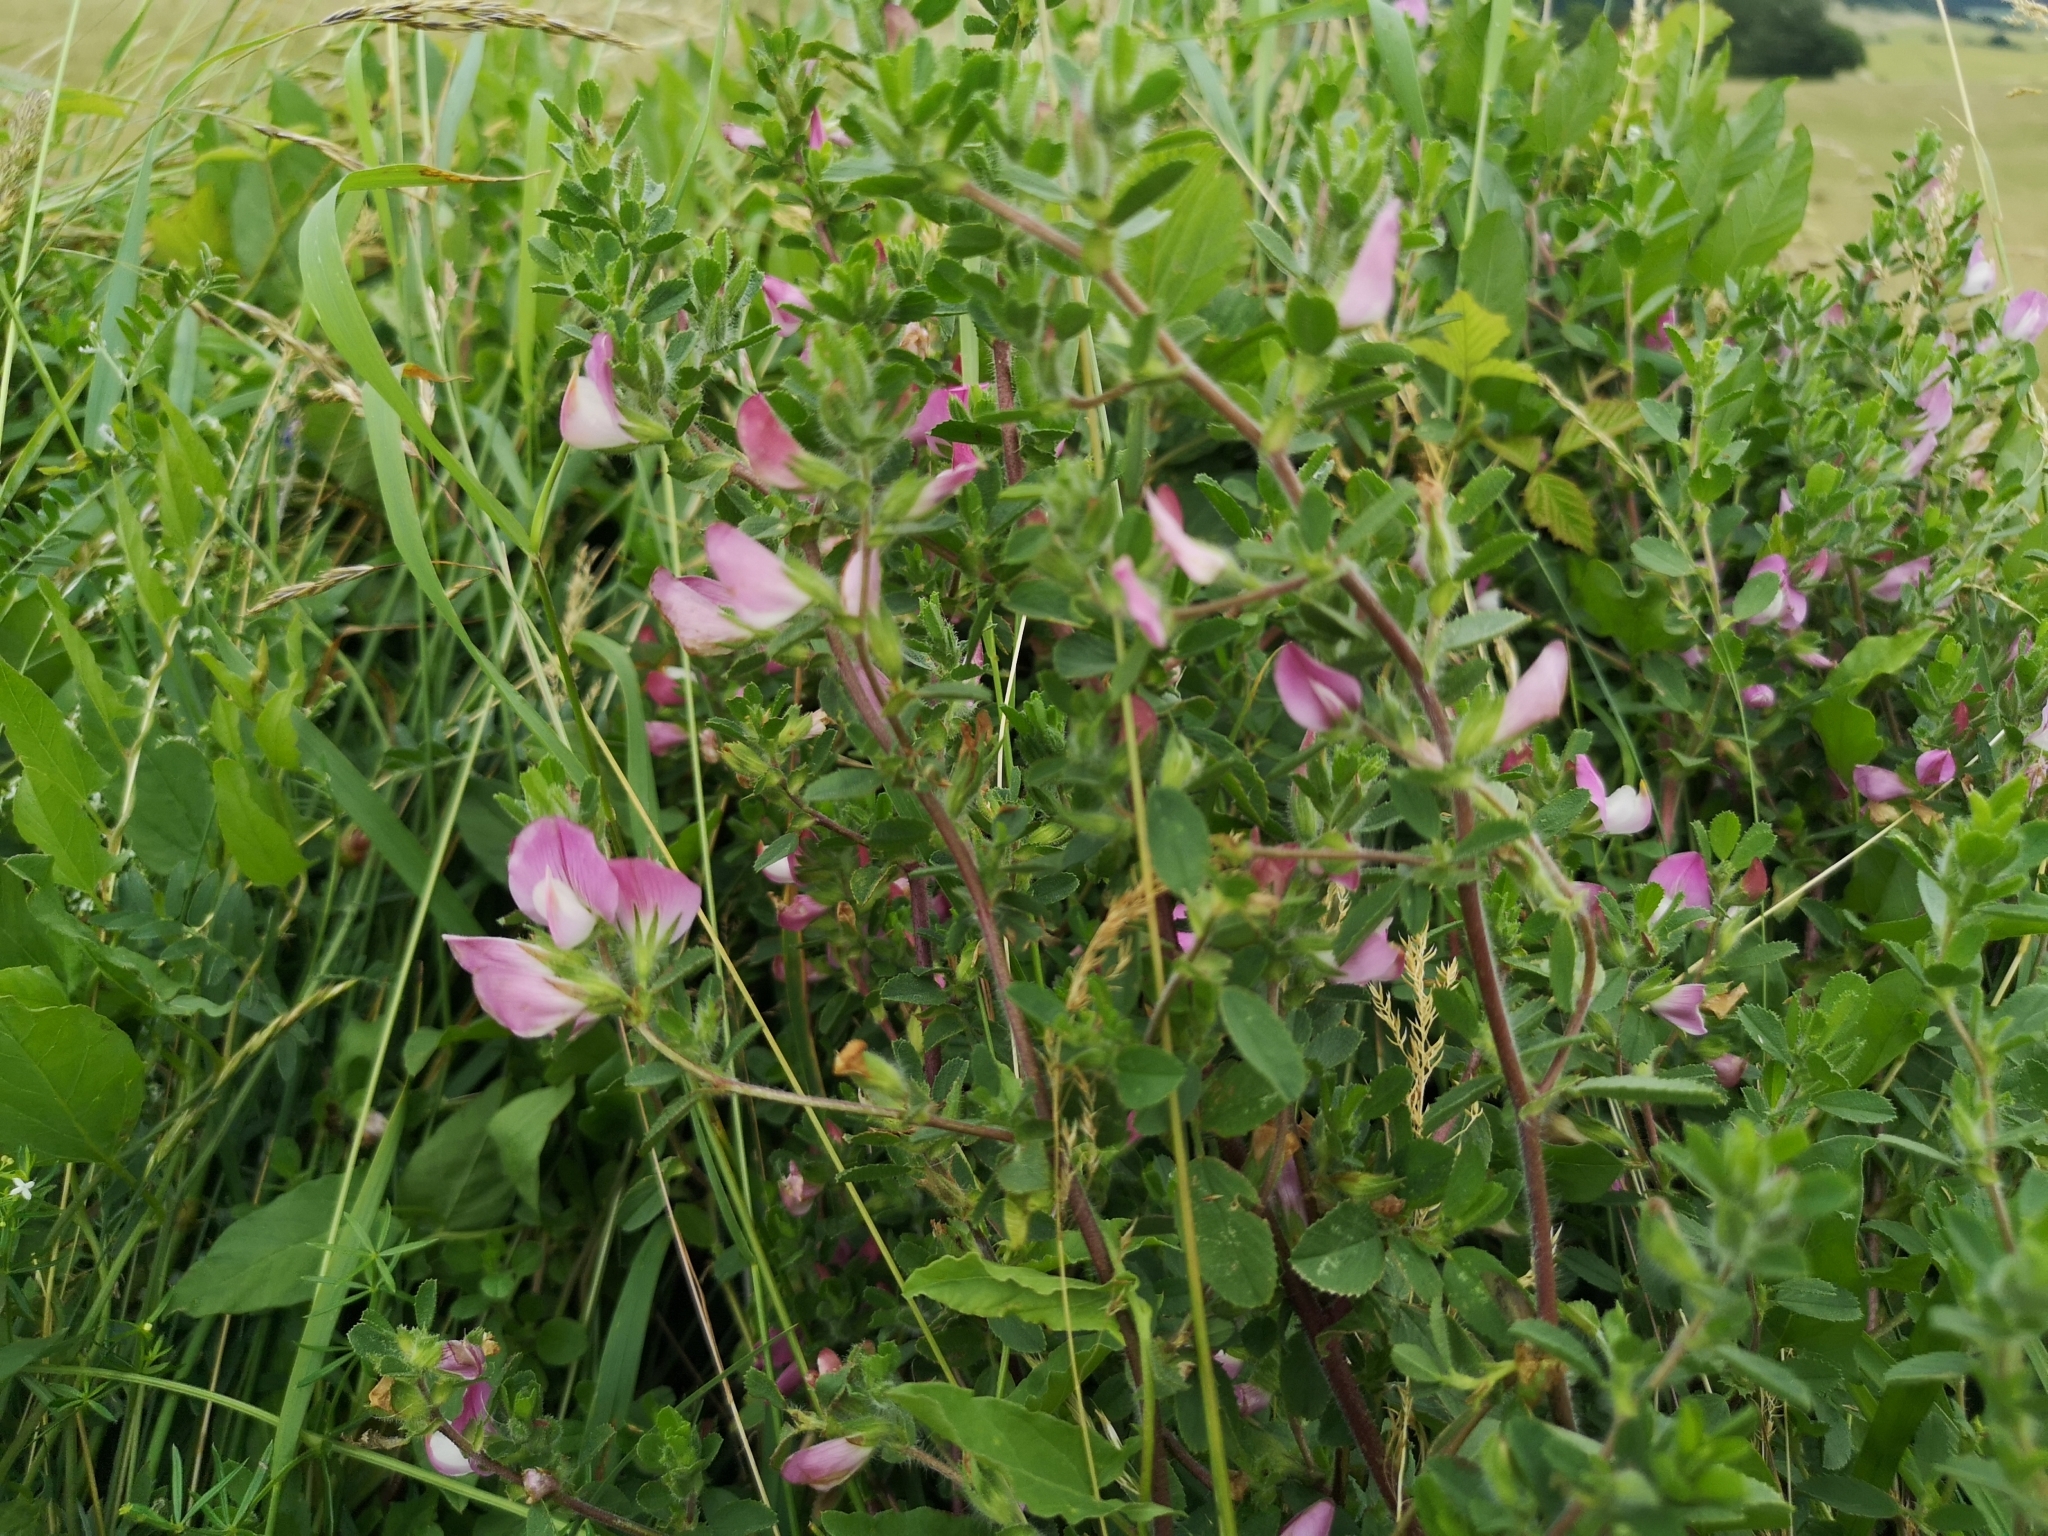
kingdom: Plantae
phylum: Tracheophyta
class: Magnoliopsida
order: Fabales
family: Fabaceae
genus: Ononis
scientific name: Ononis spinosa
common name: Spiny restharrow
